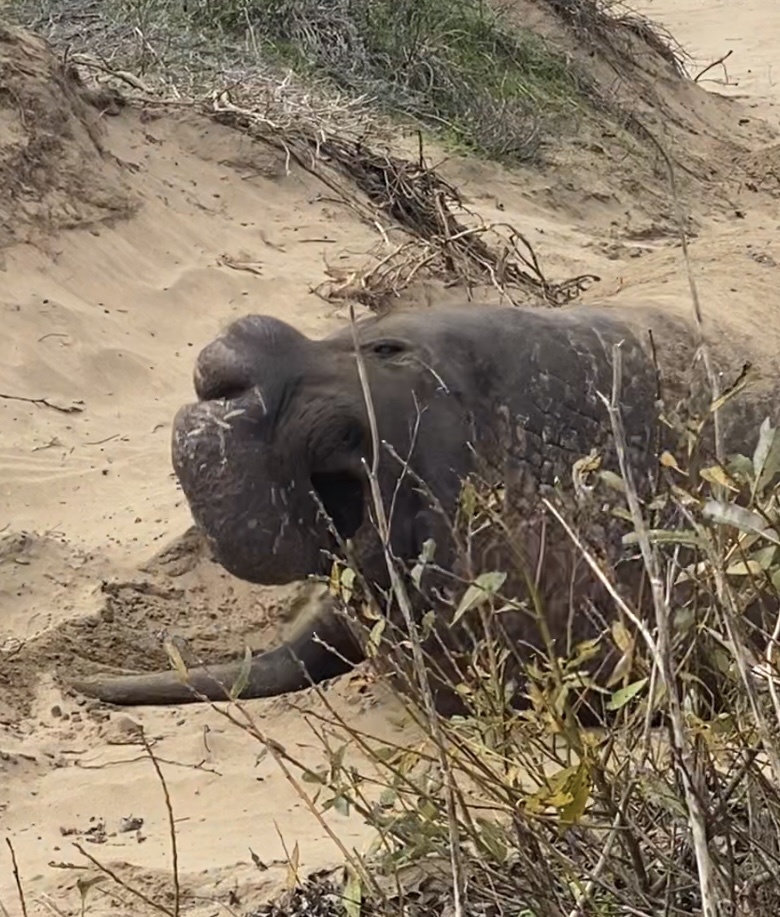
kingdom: Animalia
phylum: Chordata
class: Mammalia
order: Carnivora
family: Phocidae
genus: Mirounga
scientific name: Mirounga angustirostris
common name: Northern elephant seal
